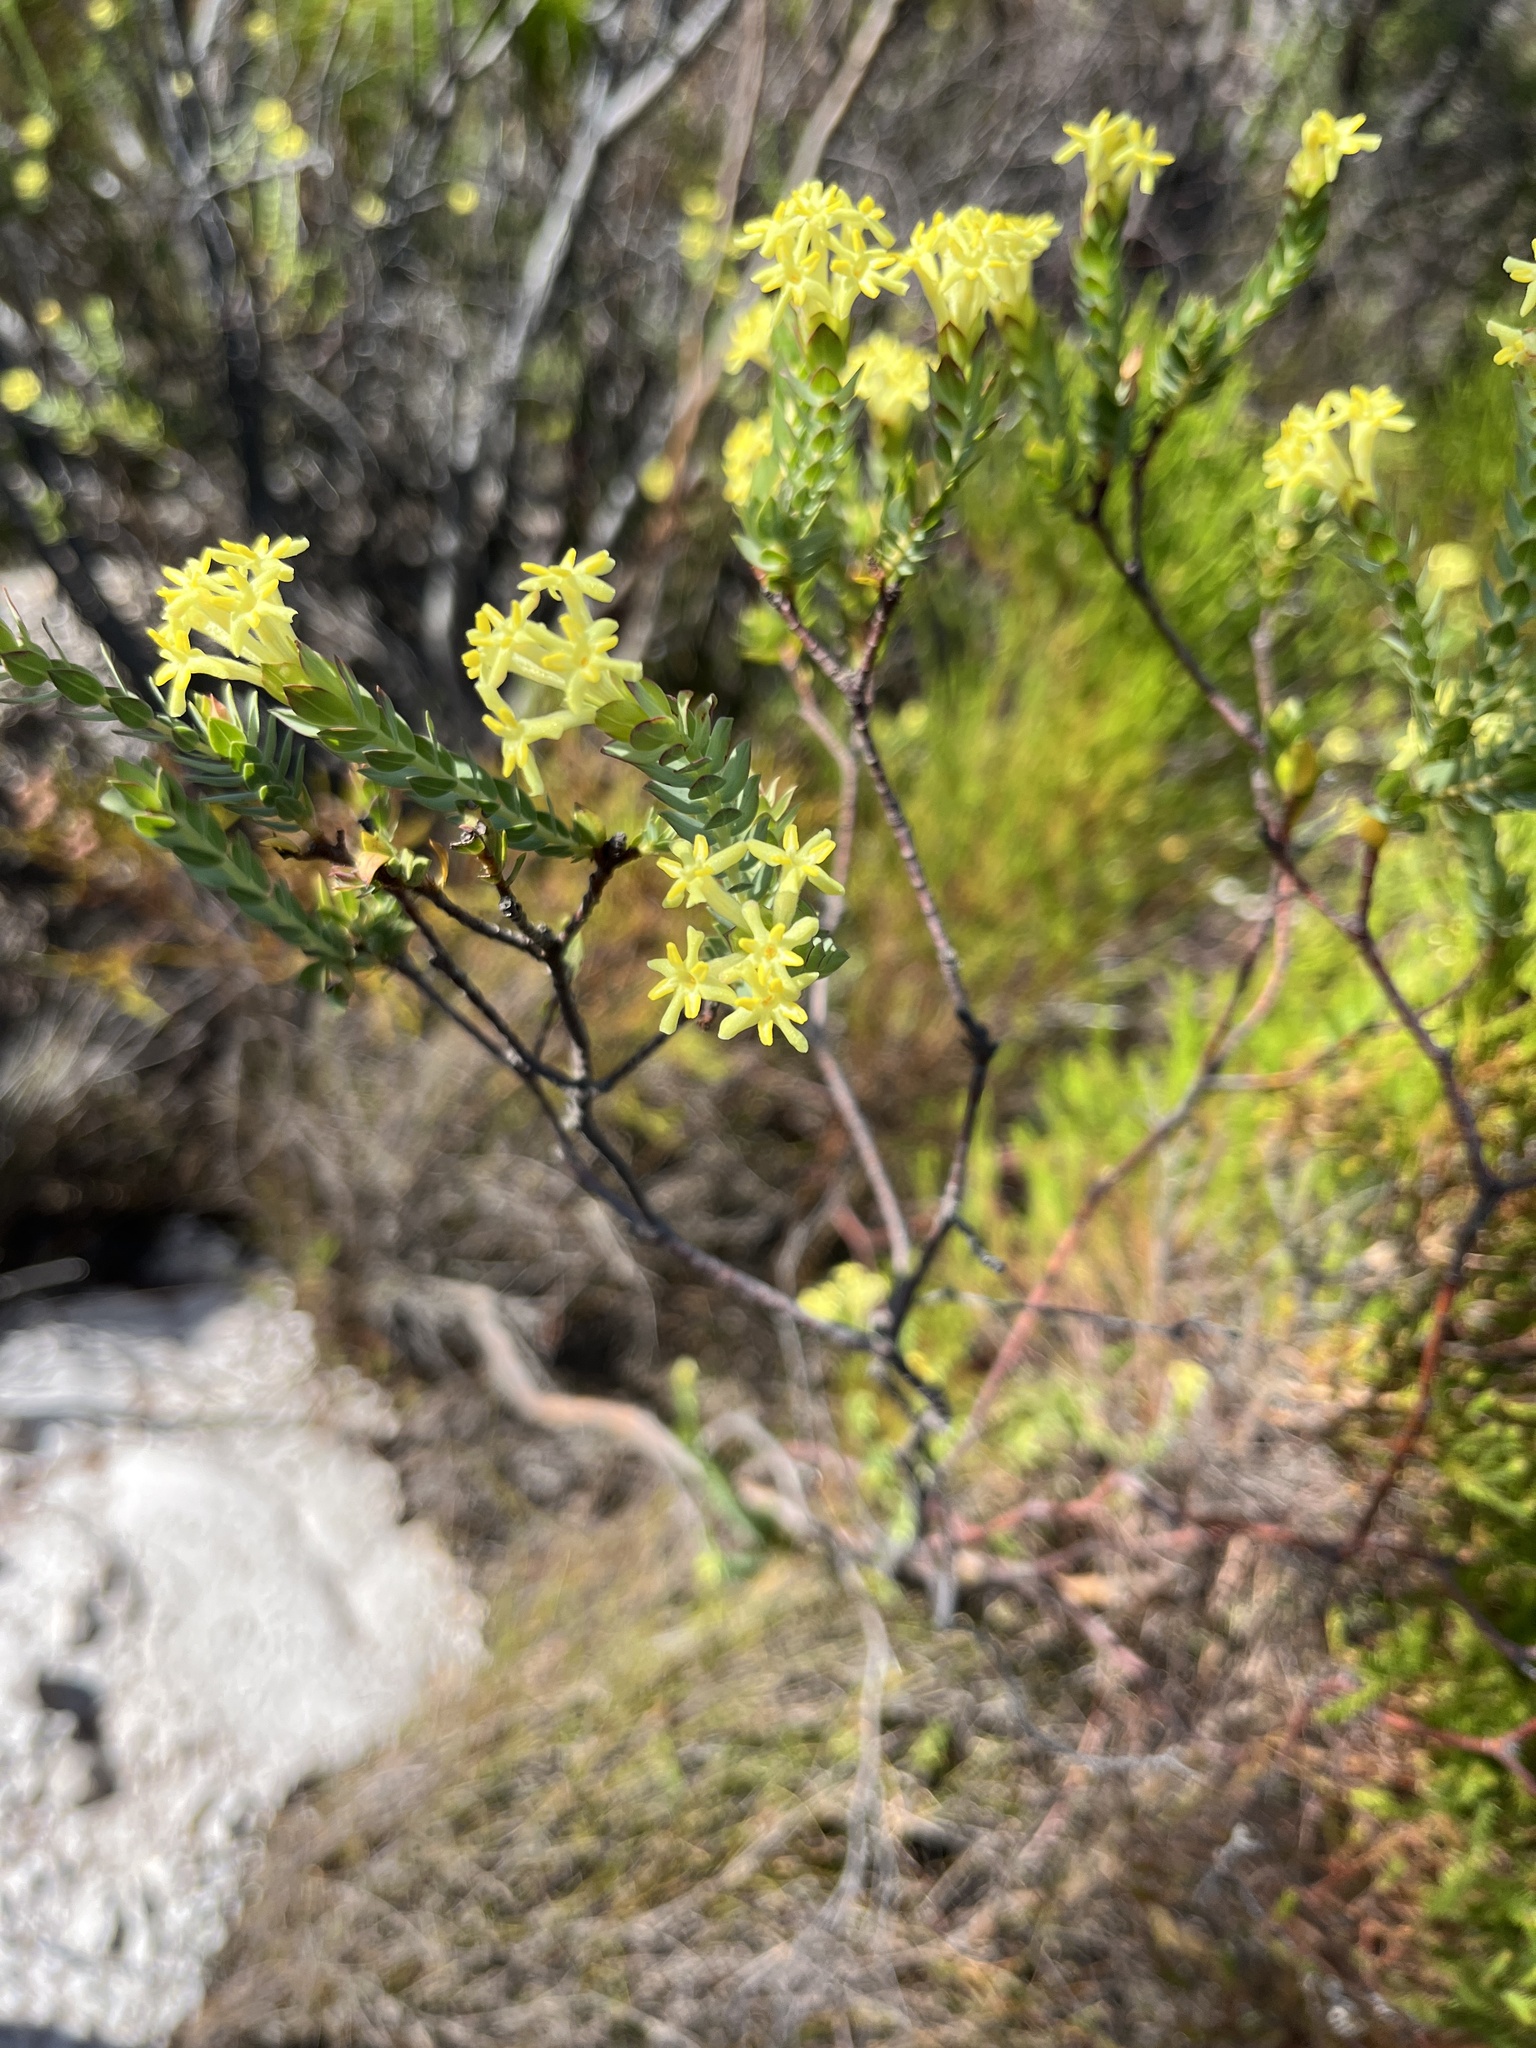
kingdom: Plantae
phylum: Tracheophyta
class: Magnoliopsida
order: Malvales
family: Thymelaeaceae
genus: Gnidia
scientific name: Gnidia oppositifolia
